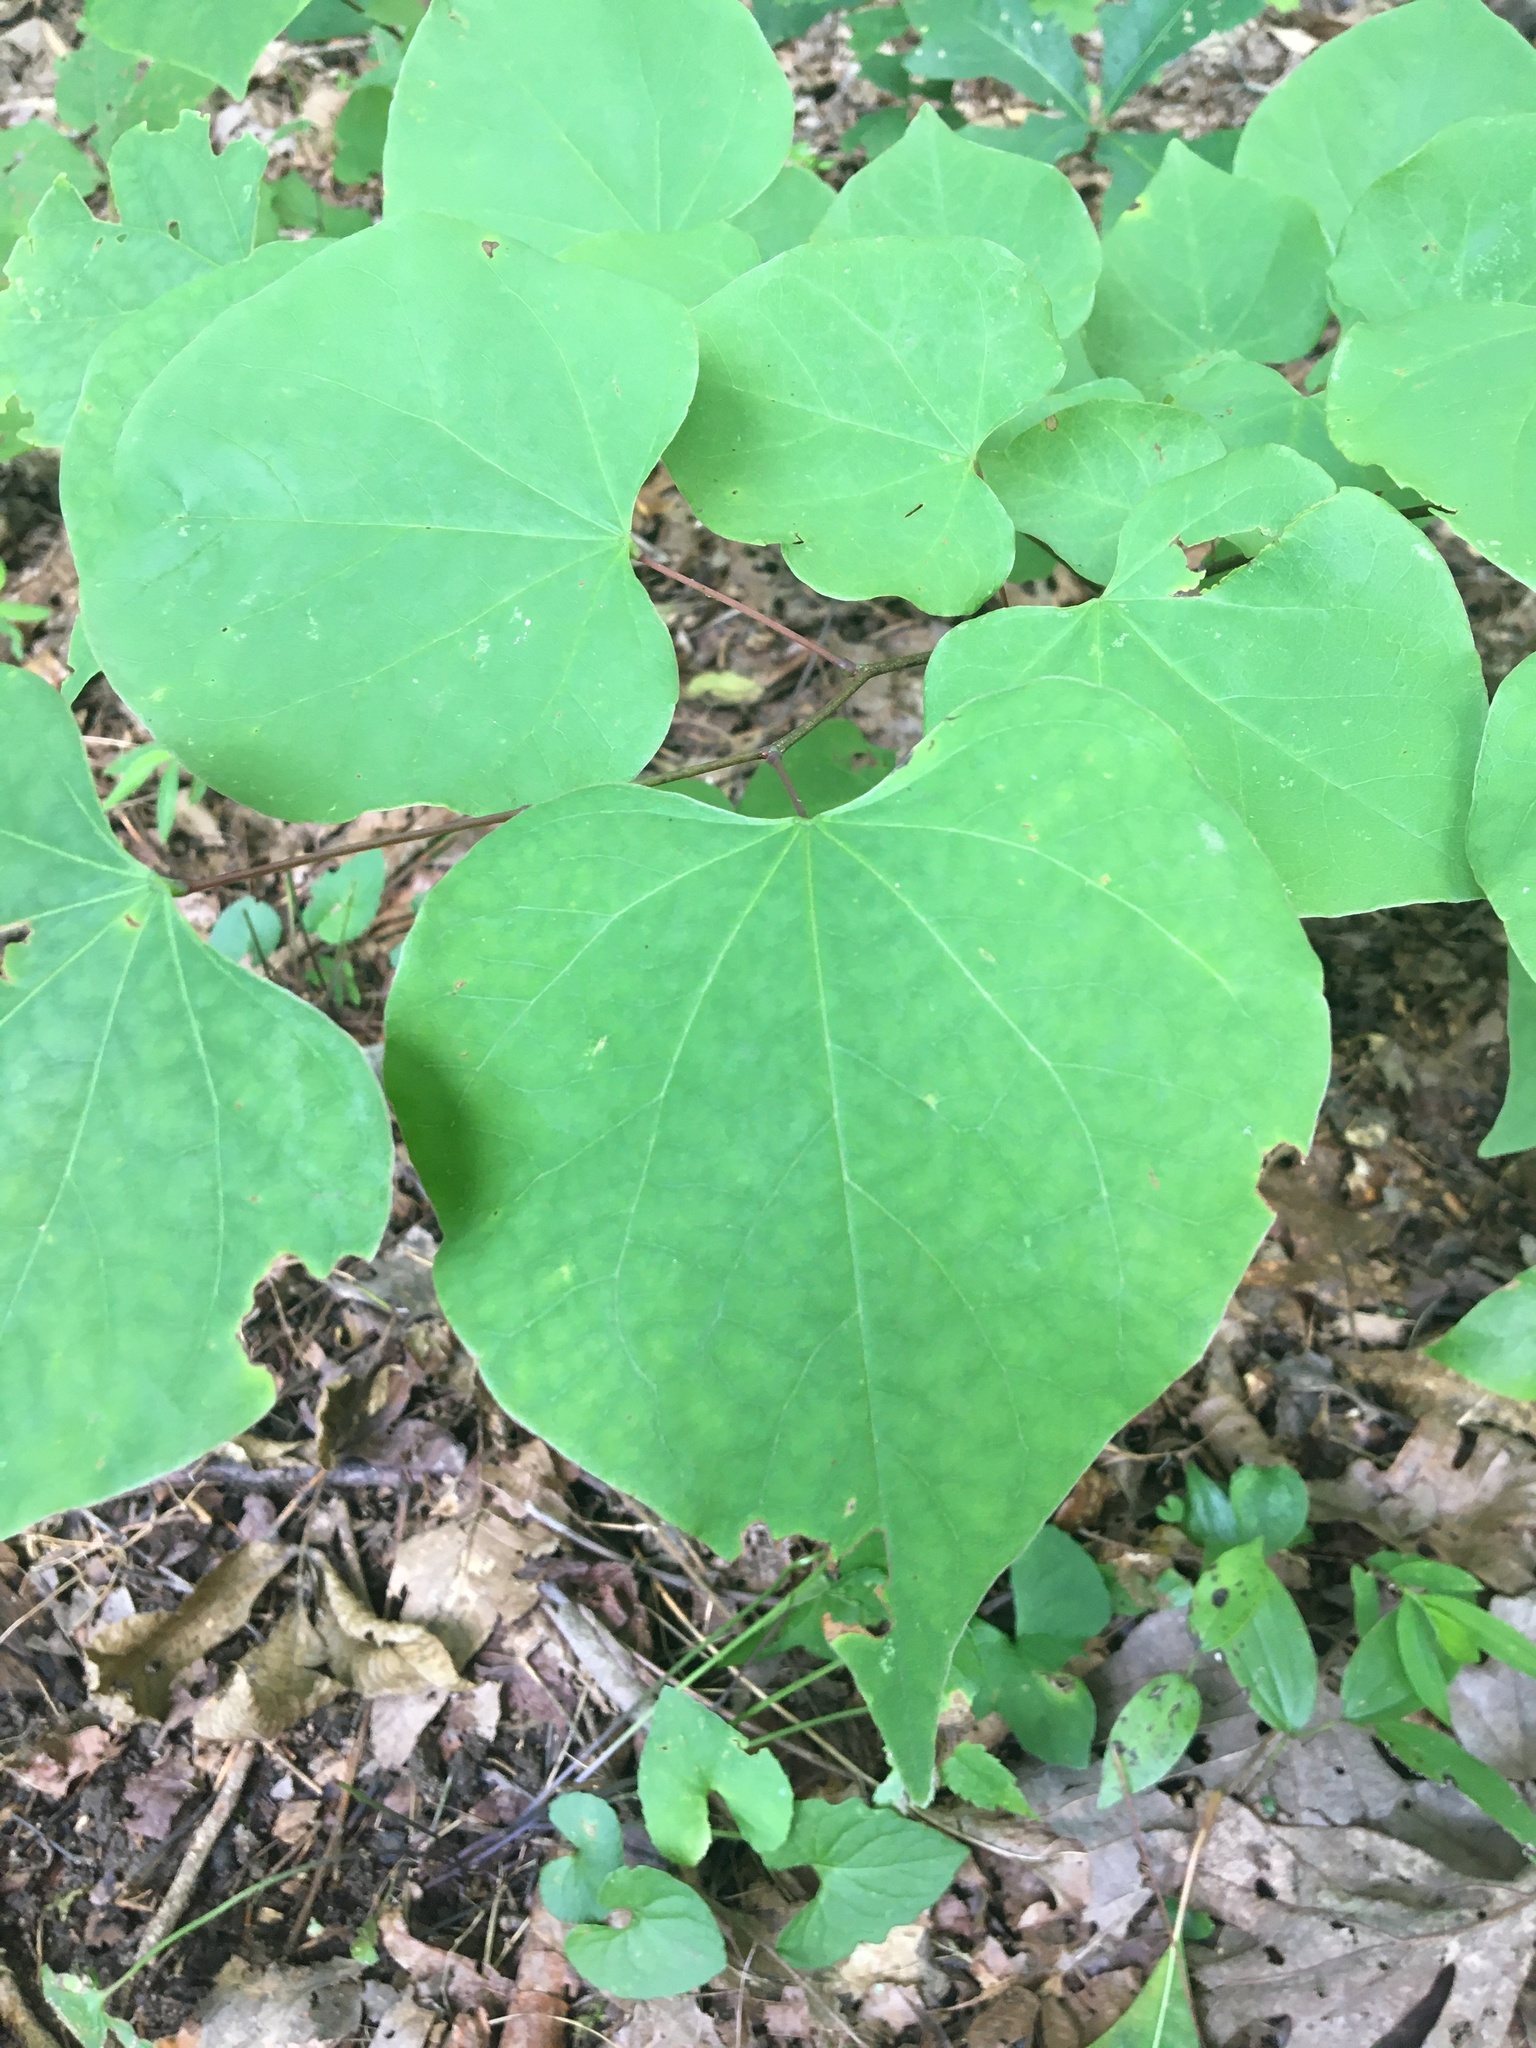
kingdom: Plantae
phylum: Tracheophyta
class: Magnoliopsida
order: Fabales
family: Fabaceae
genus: Cercis
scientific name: Cercis canadensis
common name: Eastern redbud
